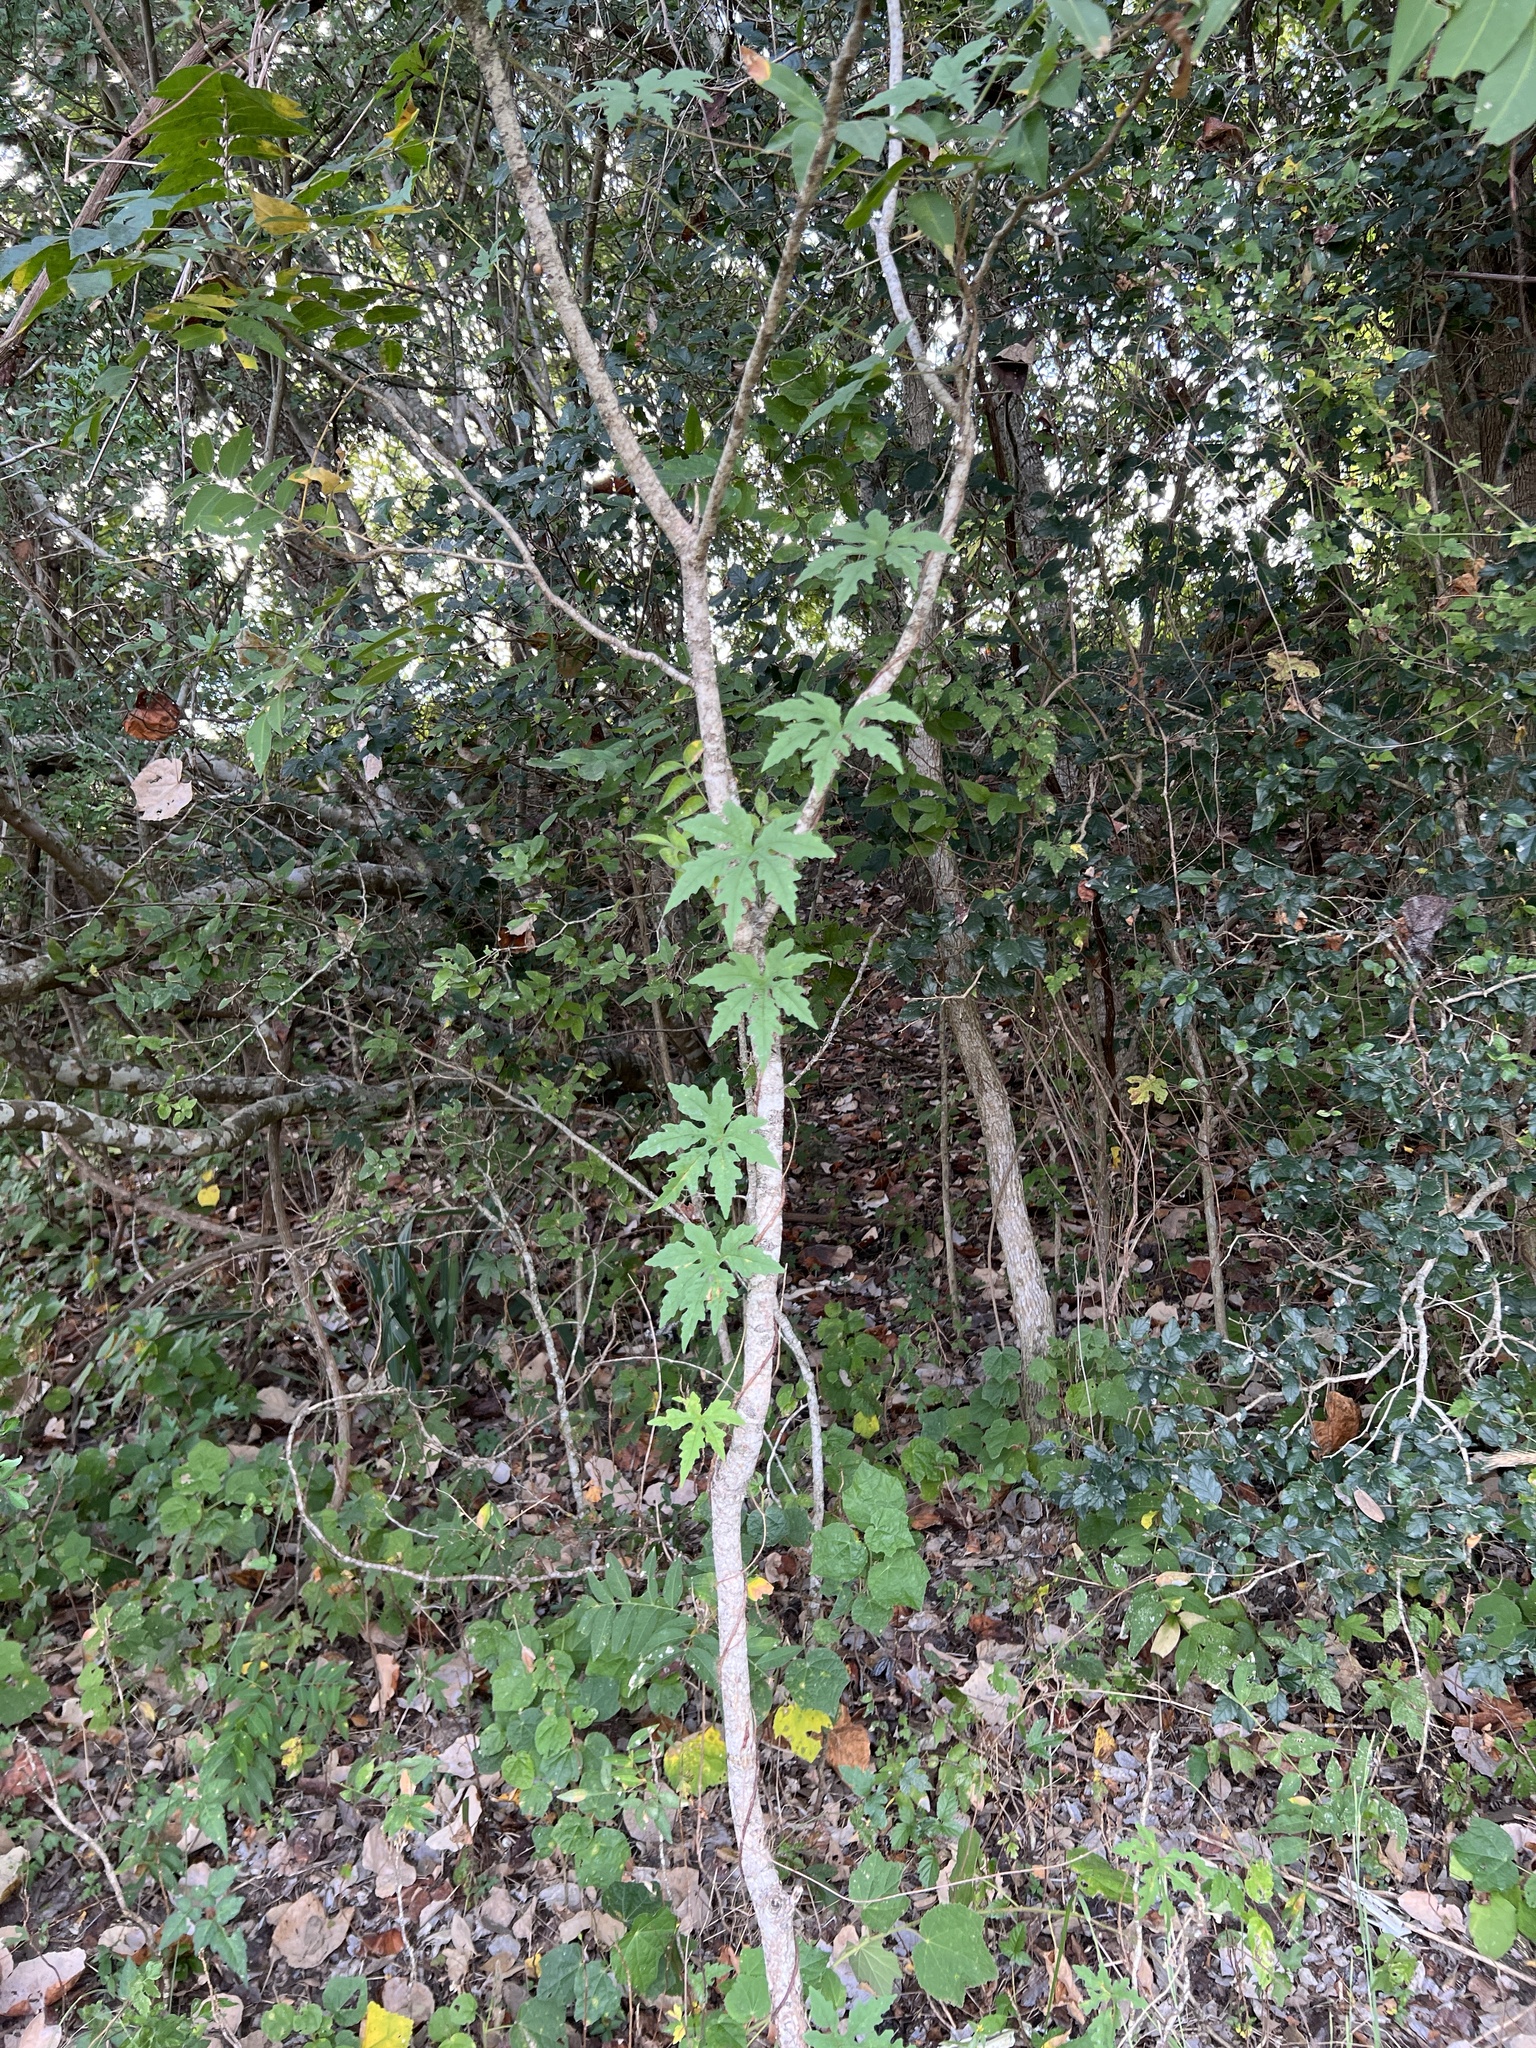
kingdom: Plantae
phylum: Tracheophyta
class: Magnoliopsida
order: Solanales
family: Convolvulaceae
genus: Distimake
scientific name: Distimake dissectus
